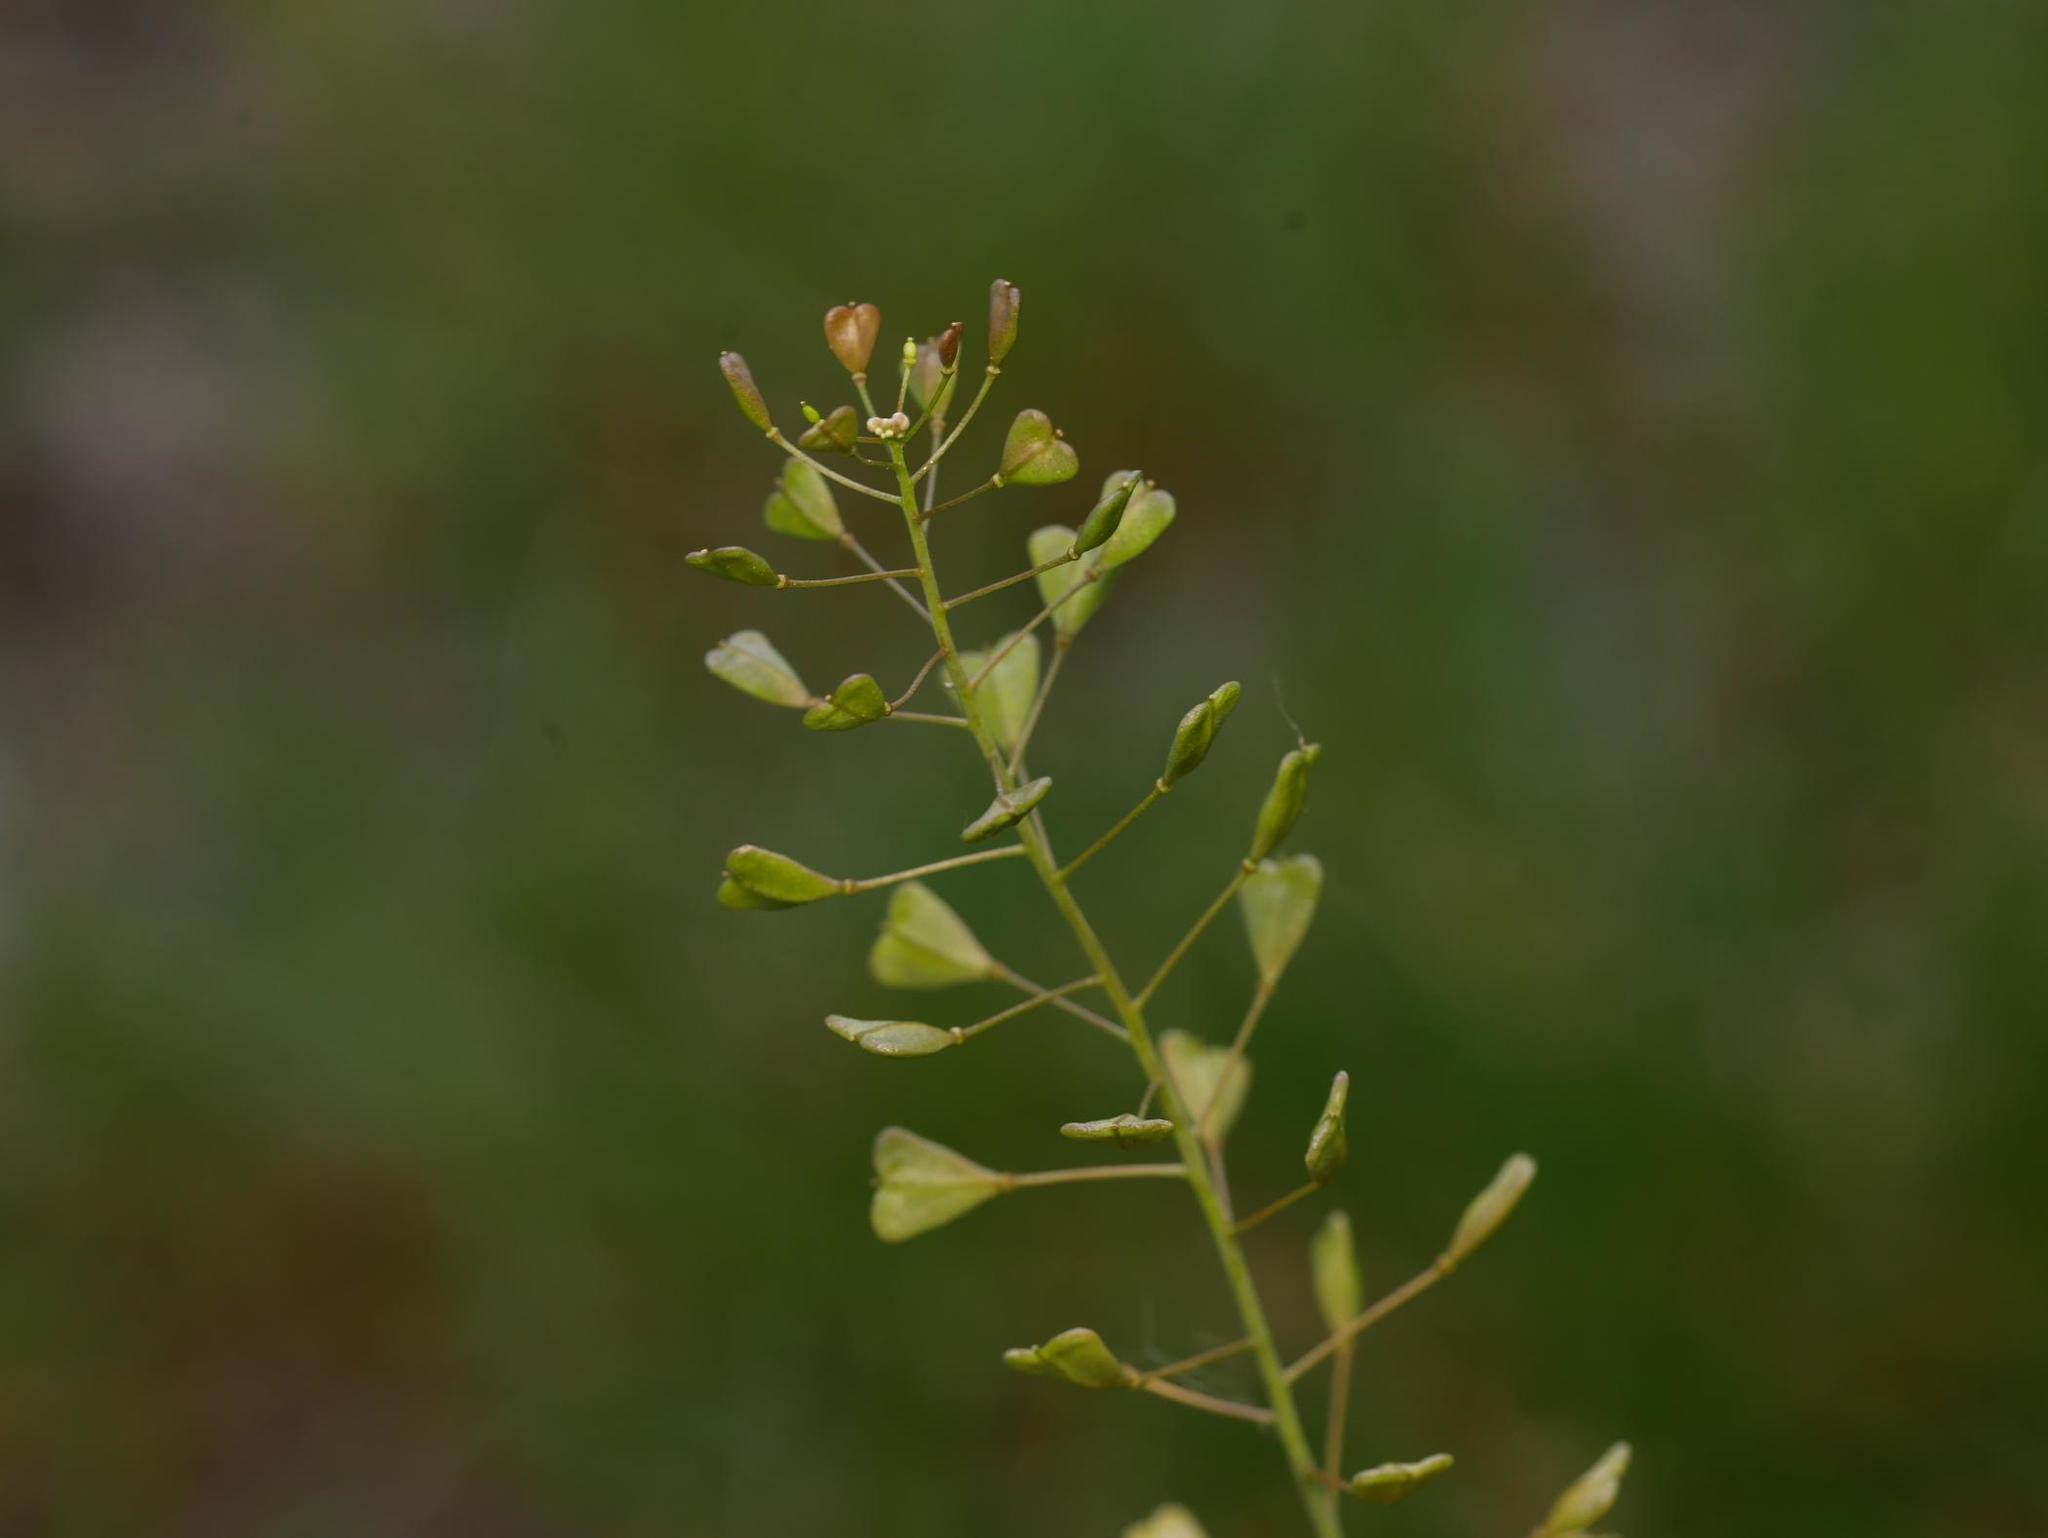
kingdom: Plantae
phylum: Tracheophyta
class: Magnoliopsida
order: Brassicales
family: Brassicaceae
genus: Capsella
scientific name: Capsella bursa-pastoris
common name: Shepherd's purse
